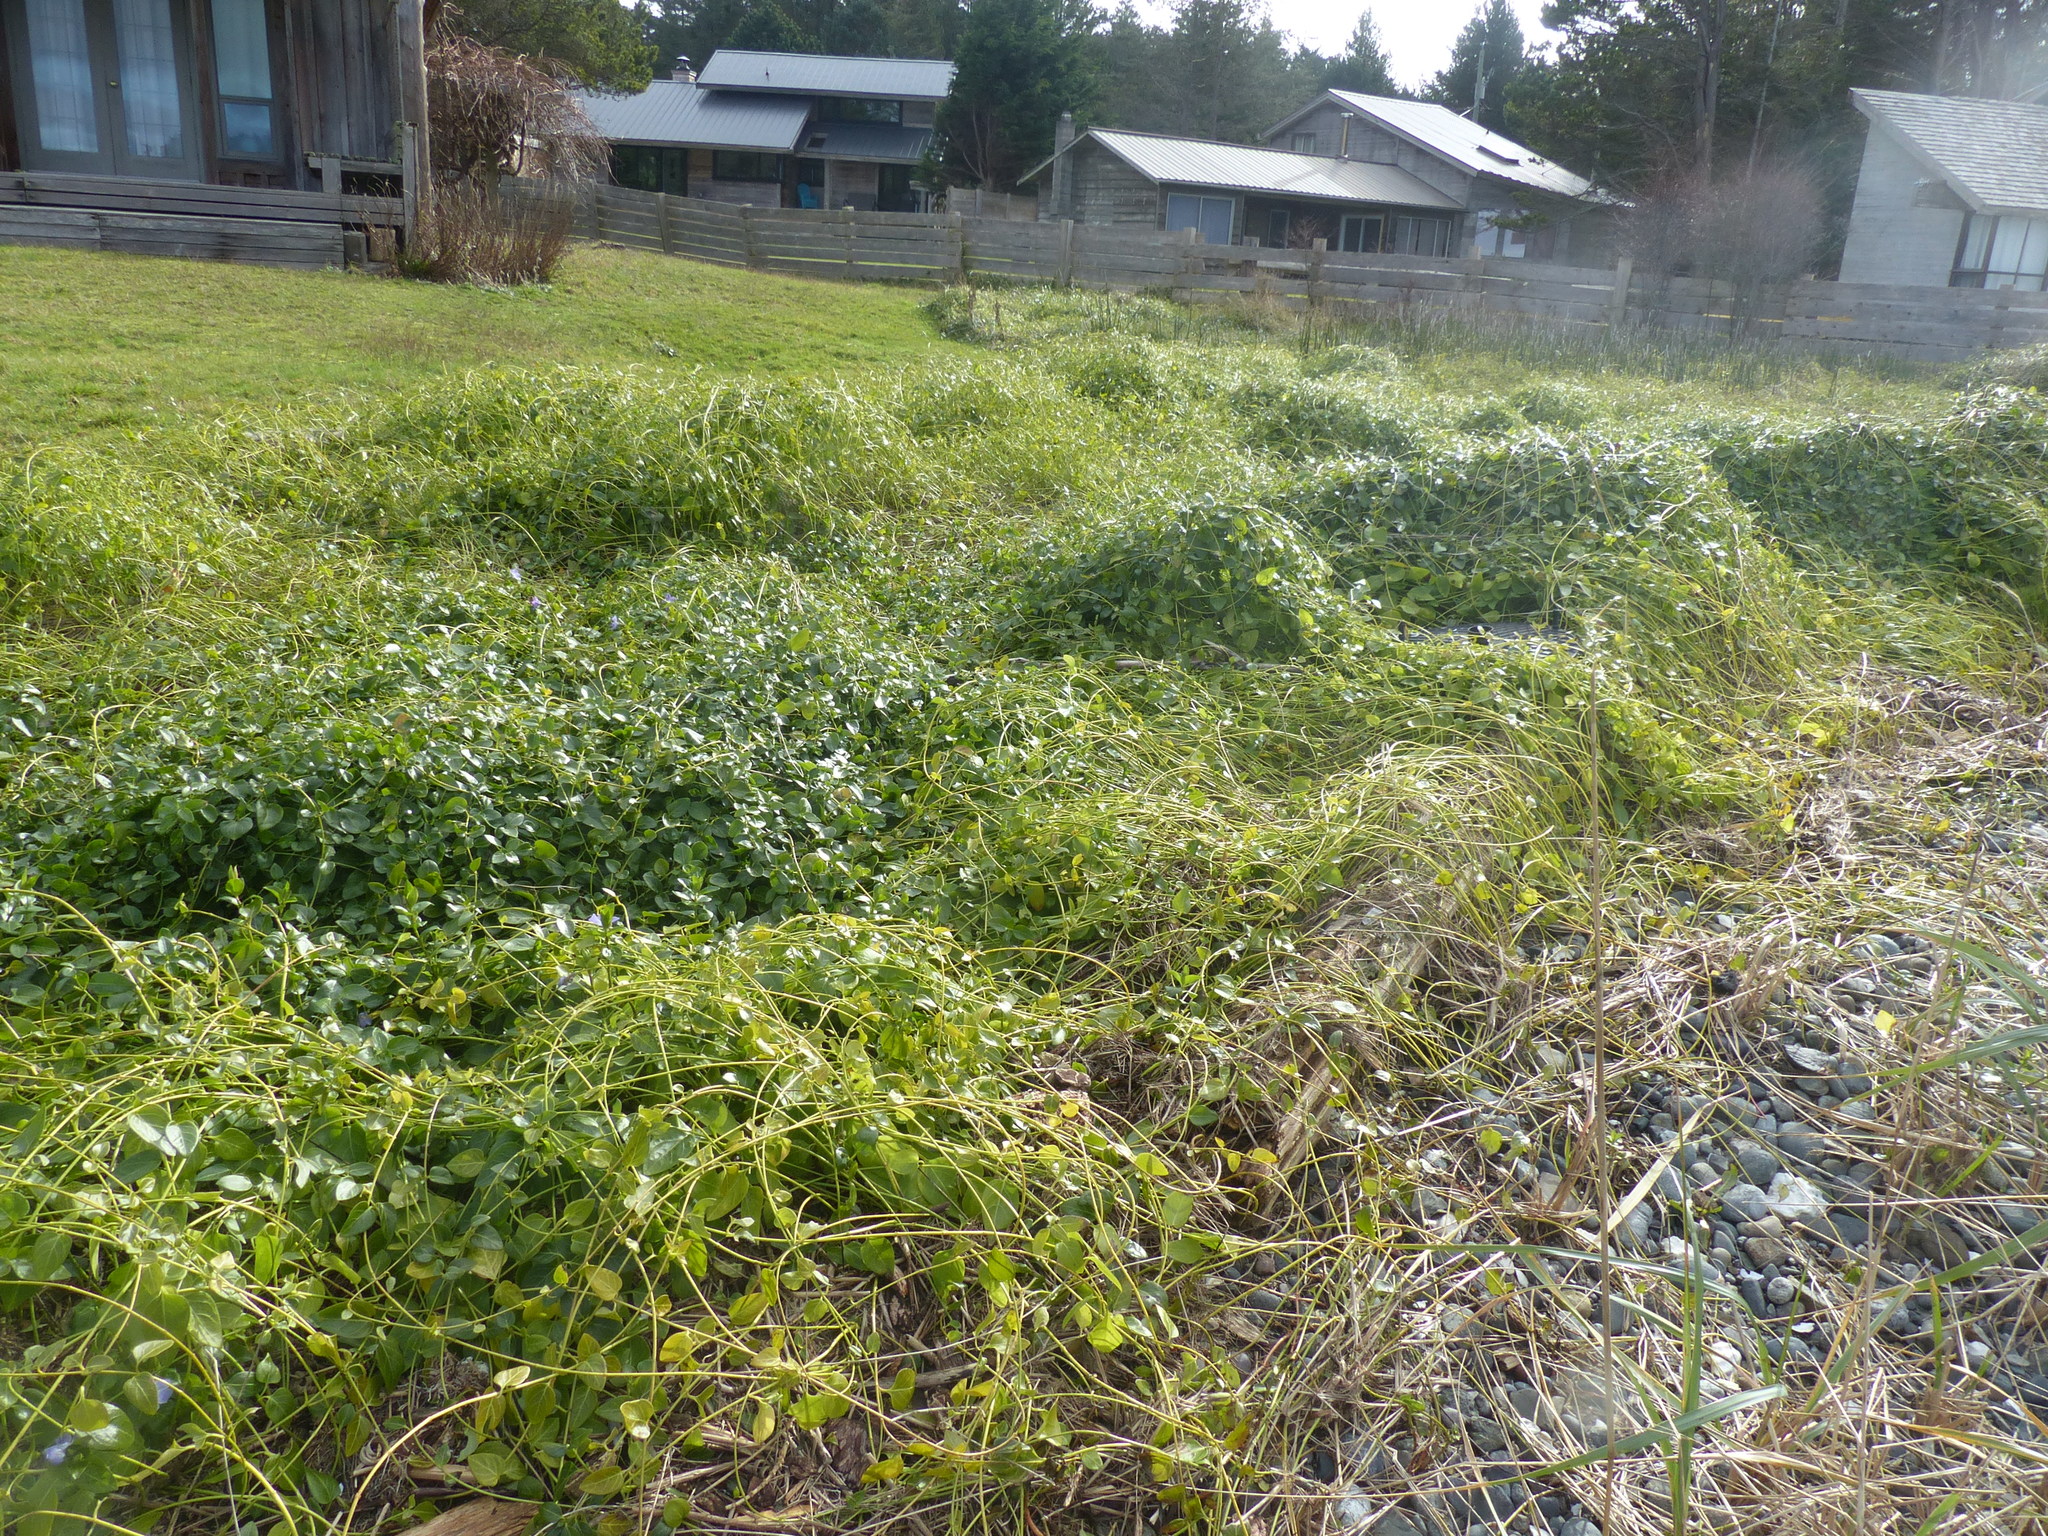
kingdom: Plantae
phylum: Tracheophyta
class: Magnoliopsida
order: Gentianales
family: Apocynaceae
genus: Vinca
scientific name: Vinca major
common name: Greater periwinkle
